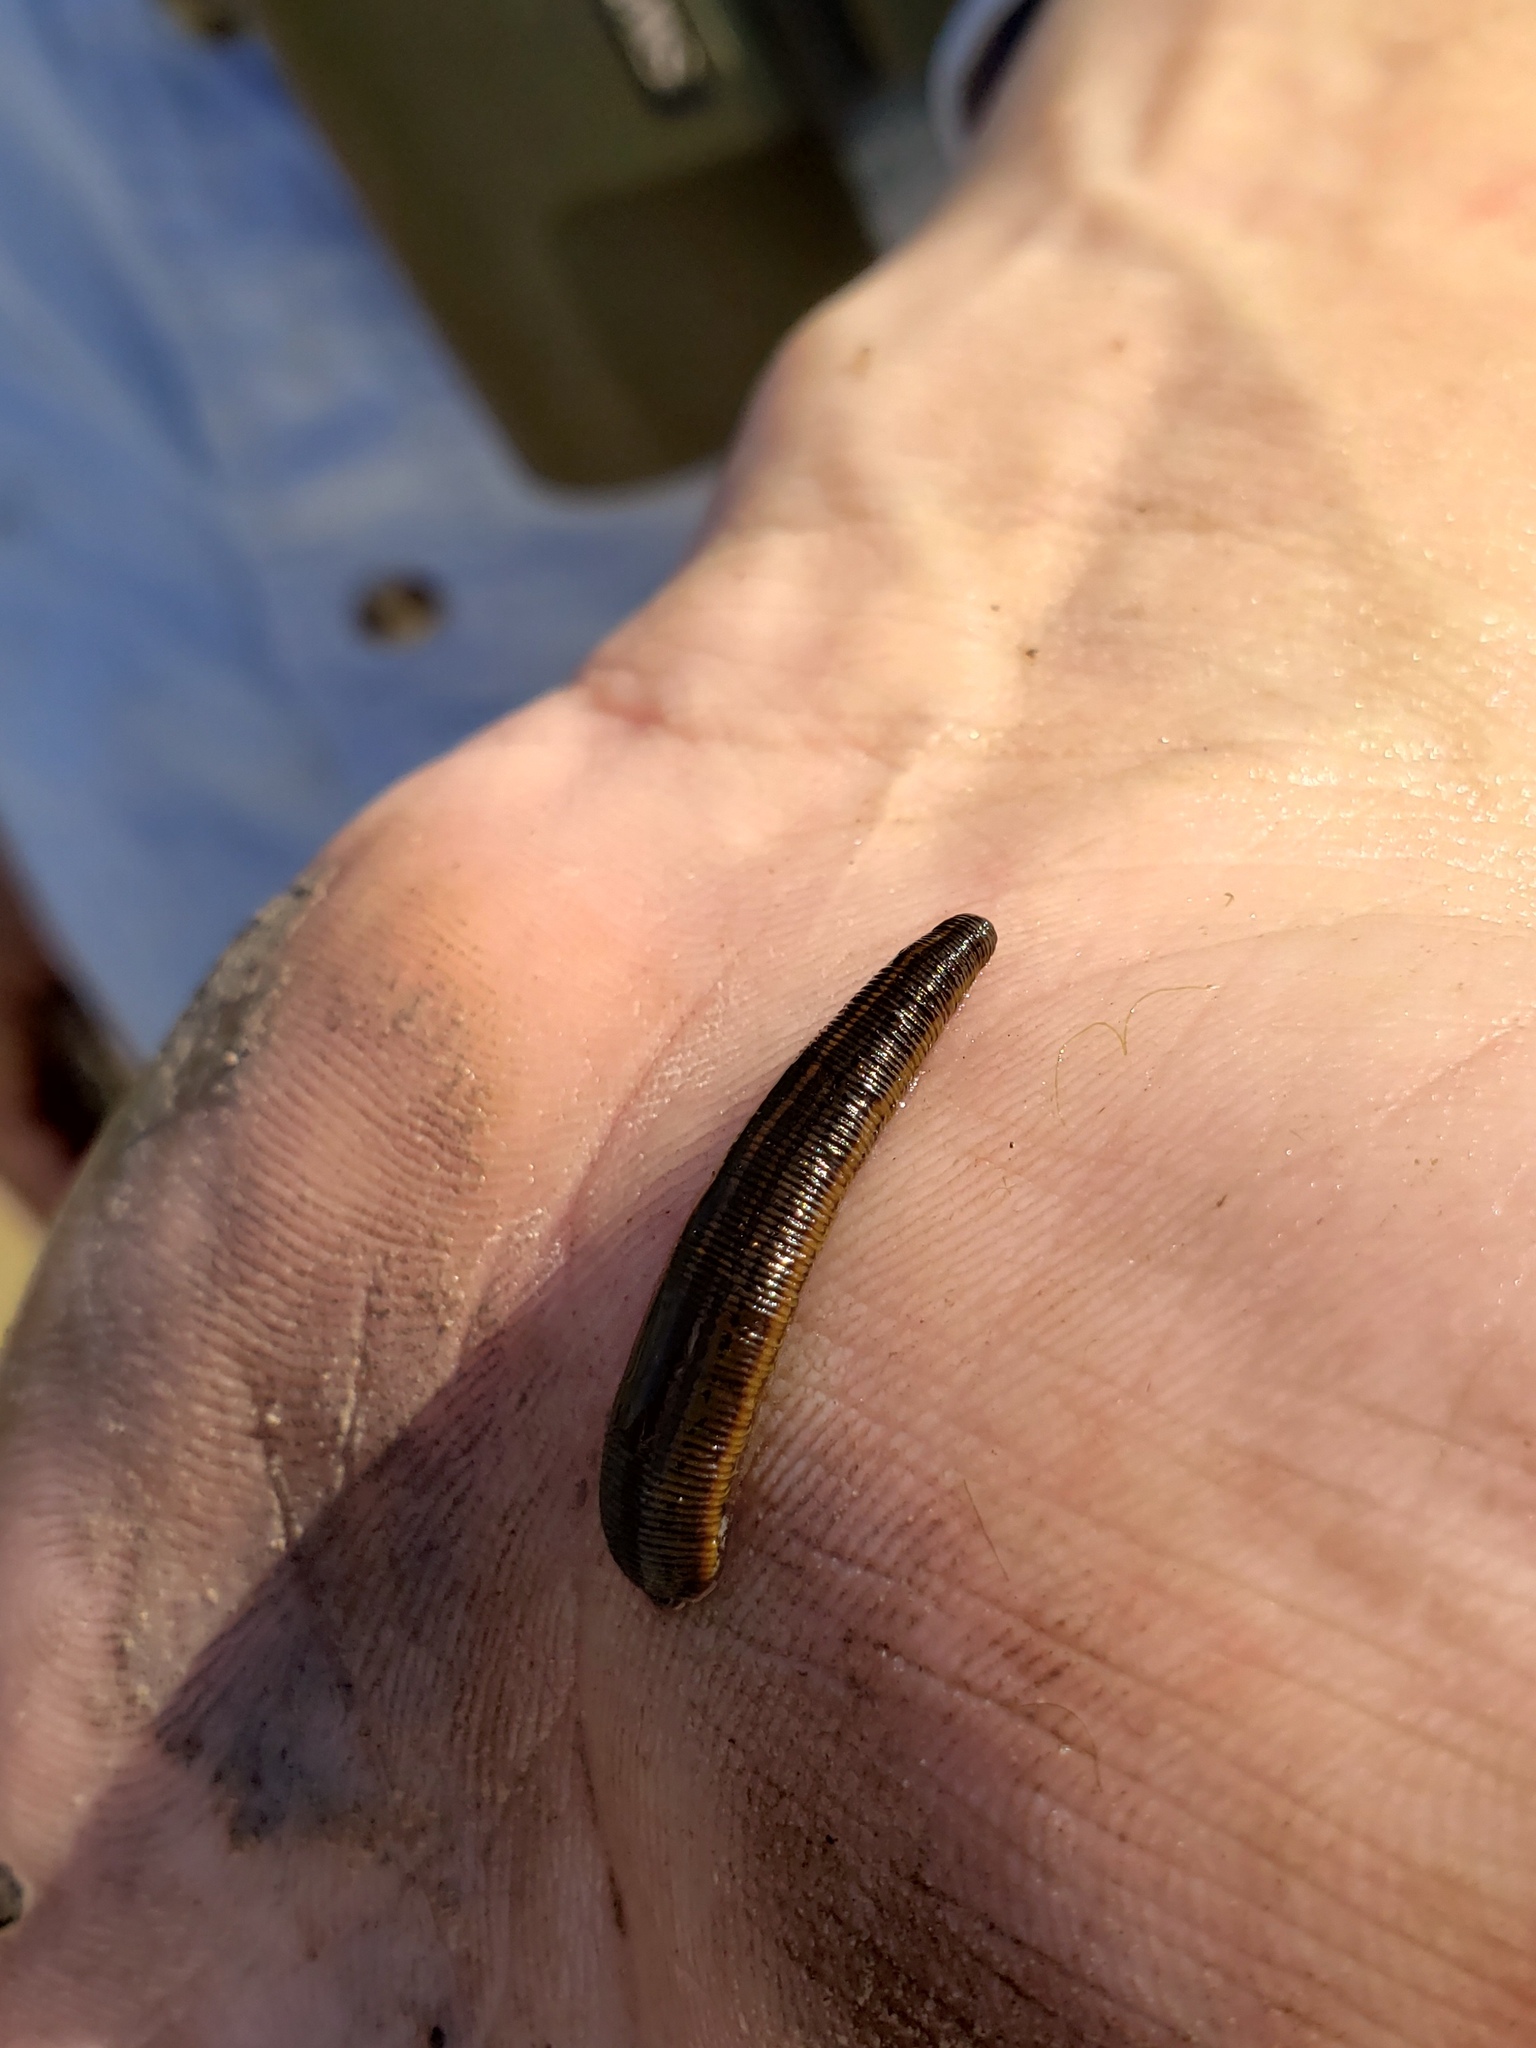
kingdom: Animalia
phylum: Annelida
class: Clitellata
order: Arhynchobdellida
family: Hirudinidae
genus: Philobdella
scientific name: Philobdella gracilis
